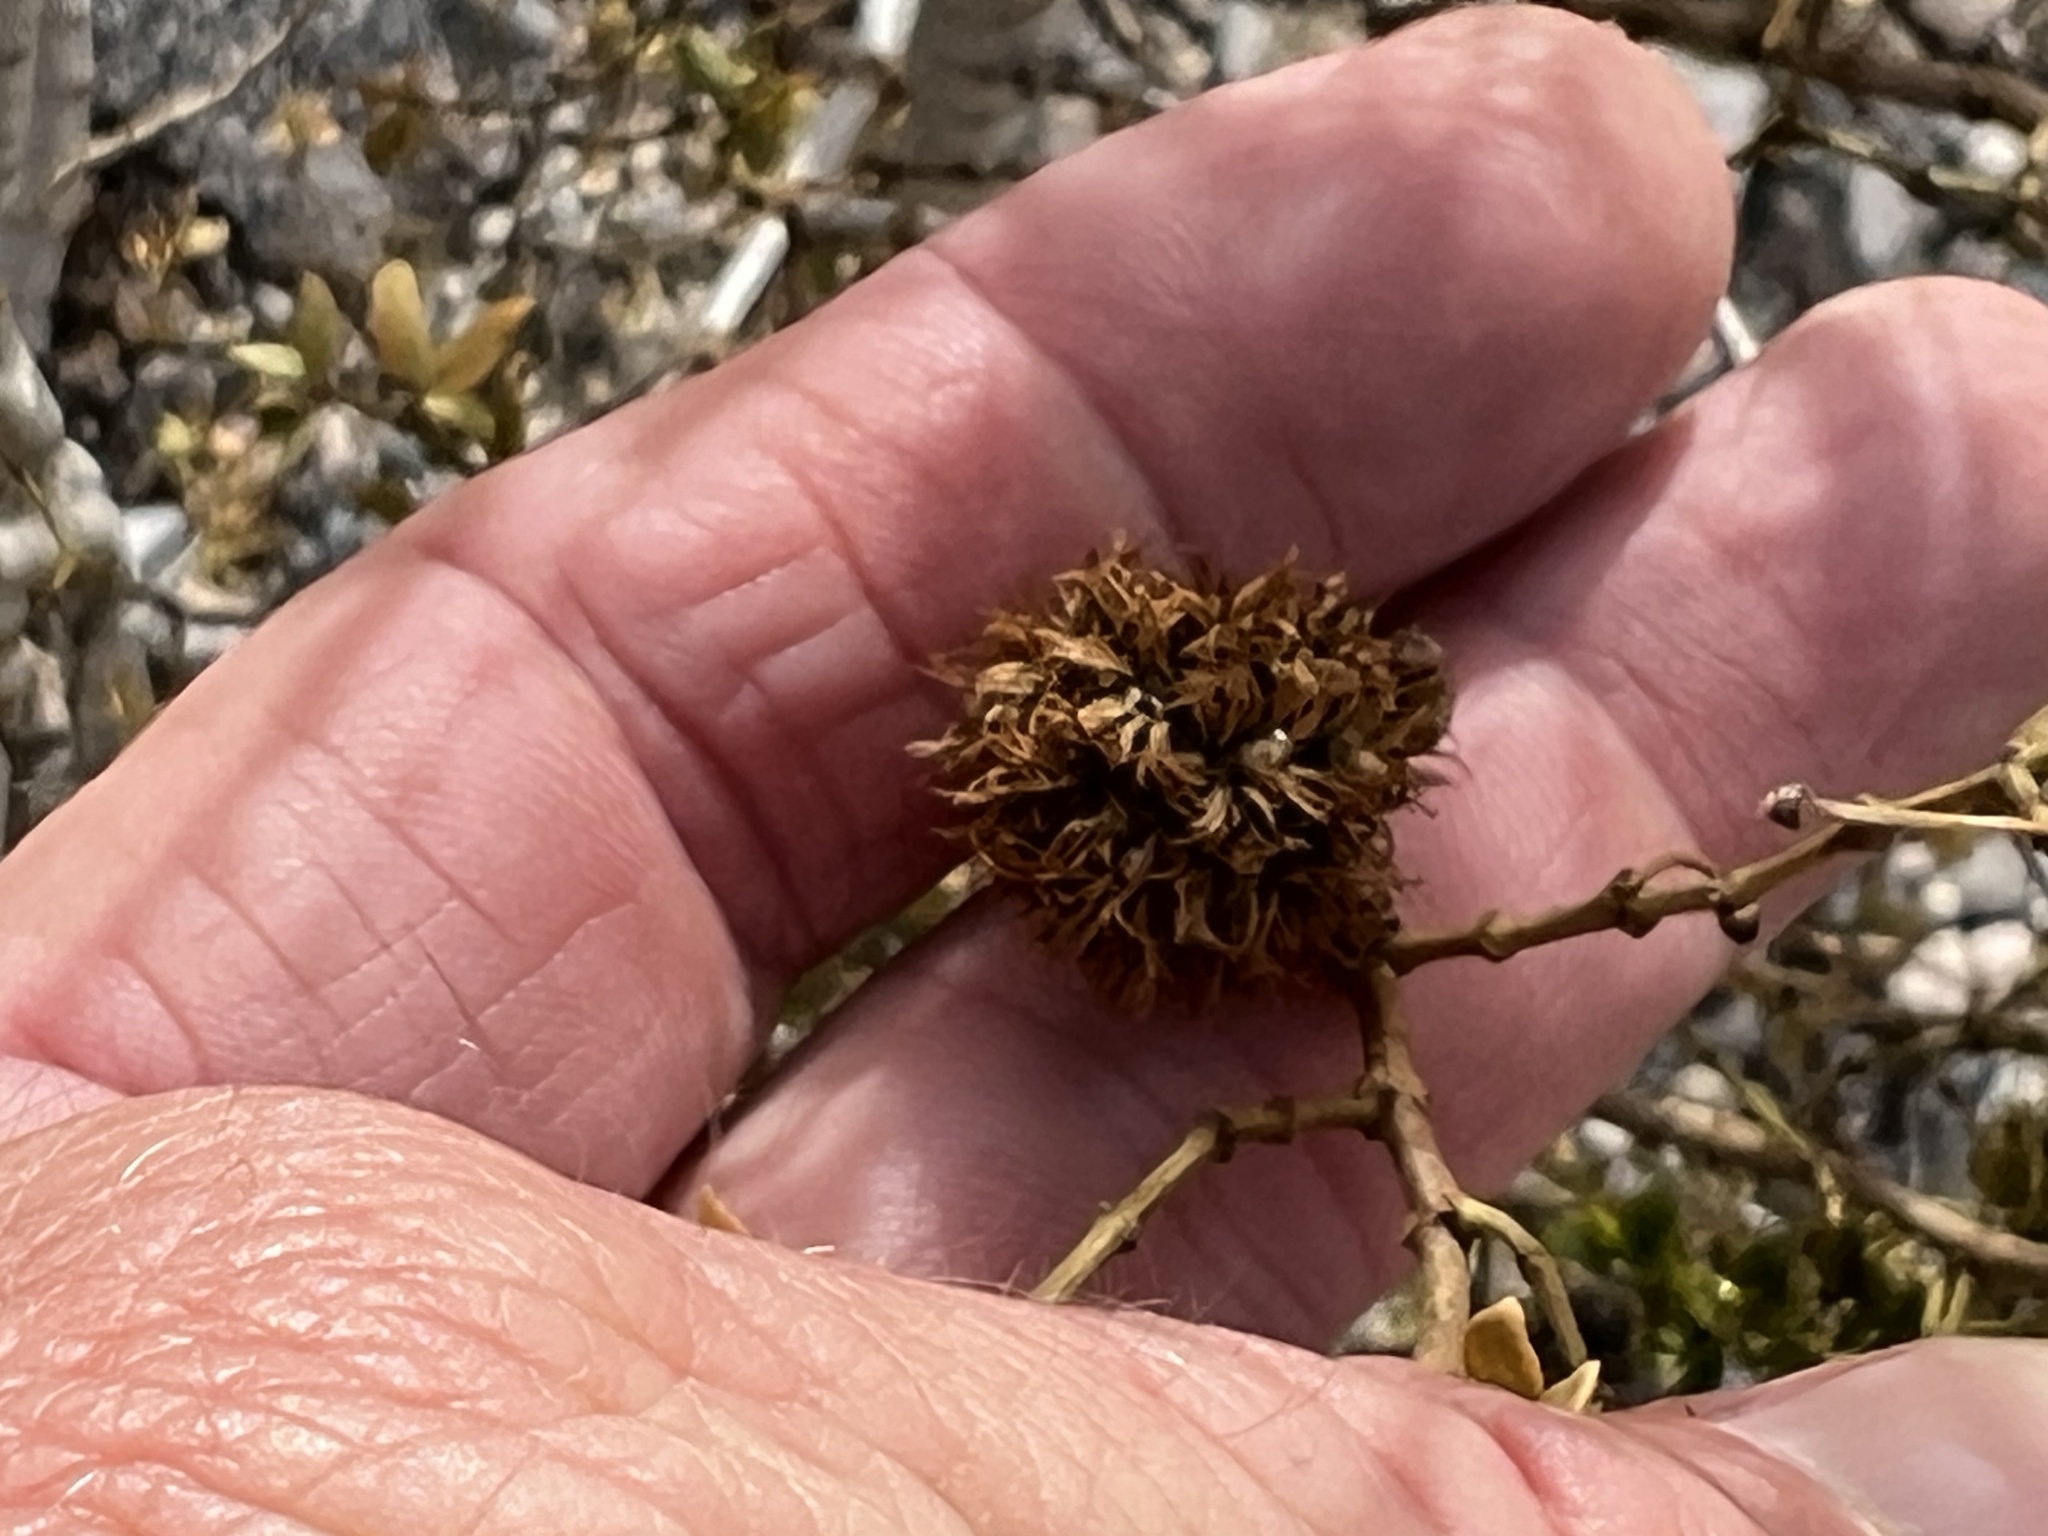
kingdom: Animalia
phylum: Arthropoda
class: Insecta
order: Diptera
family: Cecidomyiidae
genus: Asphondylia
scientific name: Asphondylia auripila
